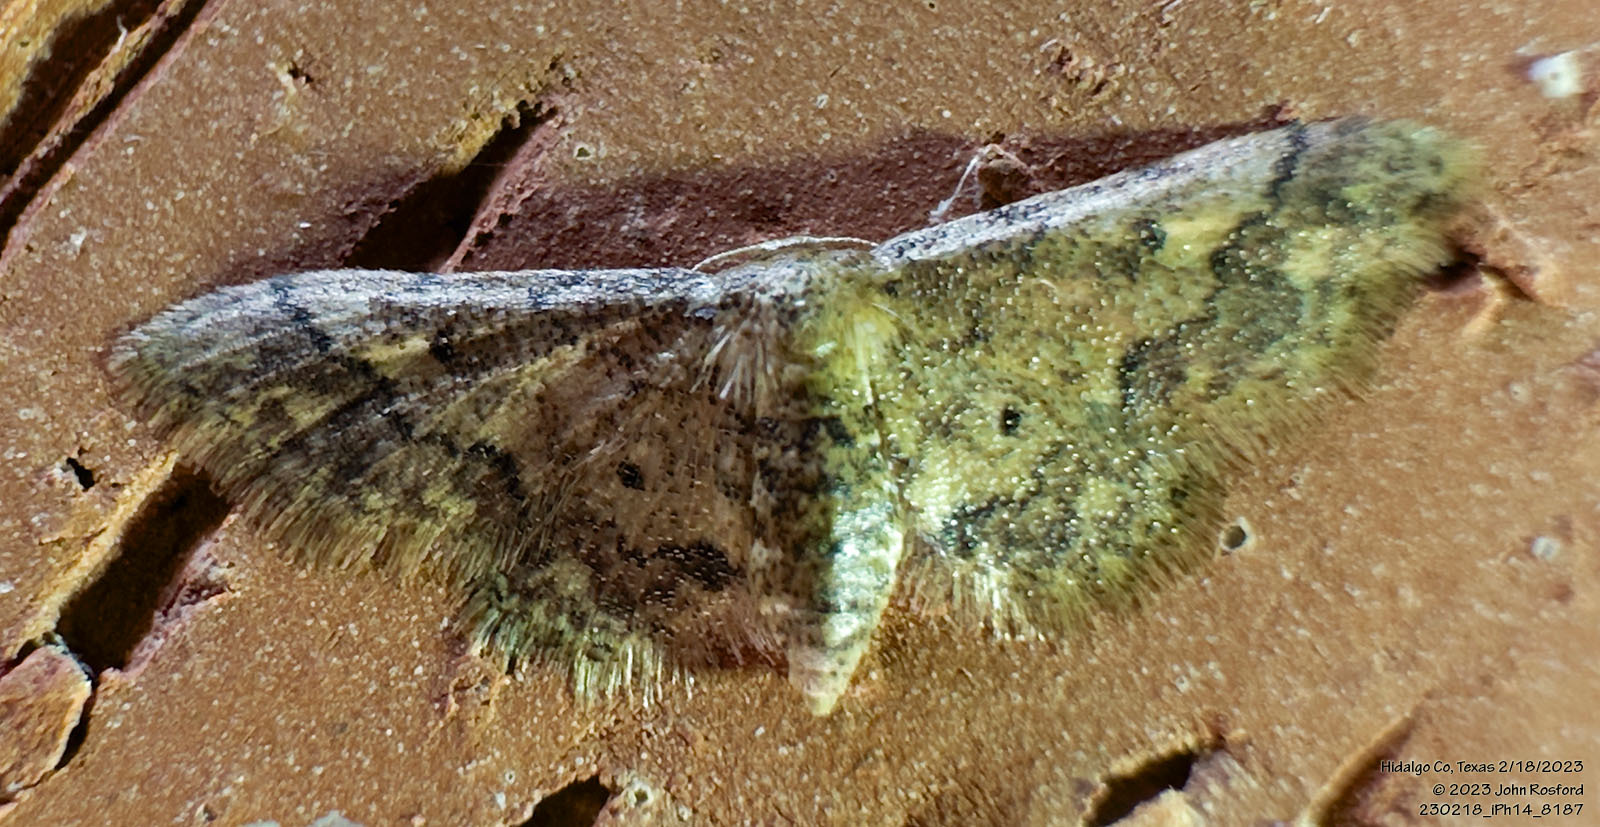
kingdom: Animalia
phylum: Arthropoda
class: Insecta
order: Lepidoptera
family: Geometridae
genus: Idaea
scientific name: Idaea celtima
